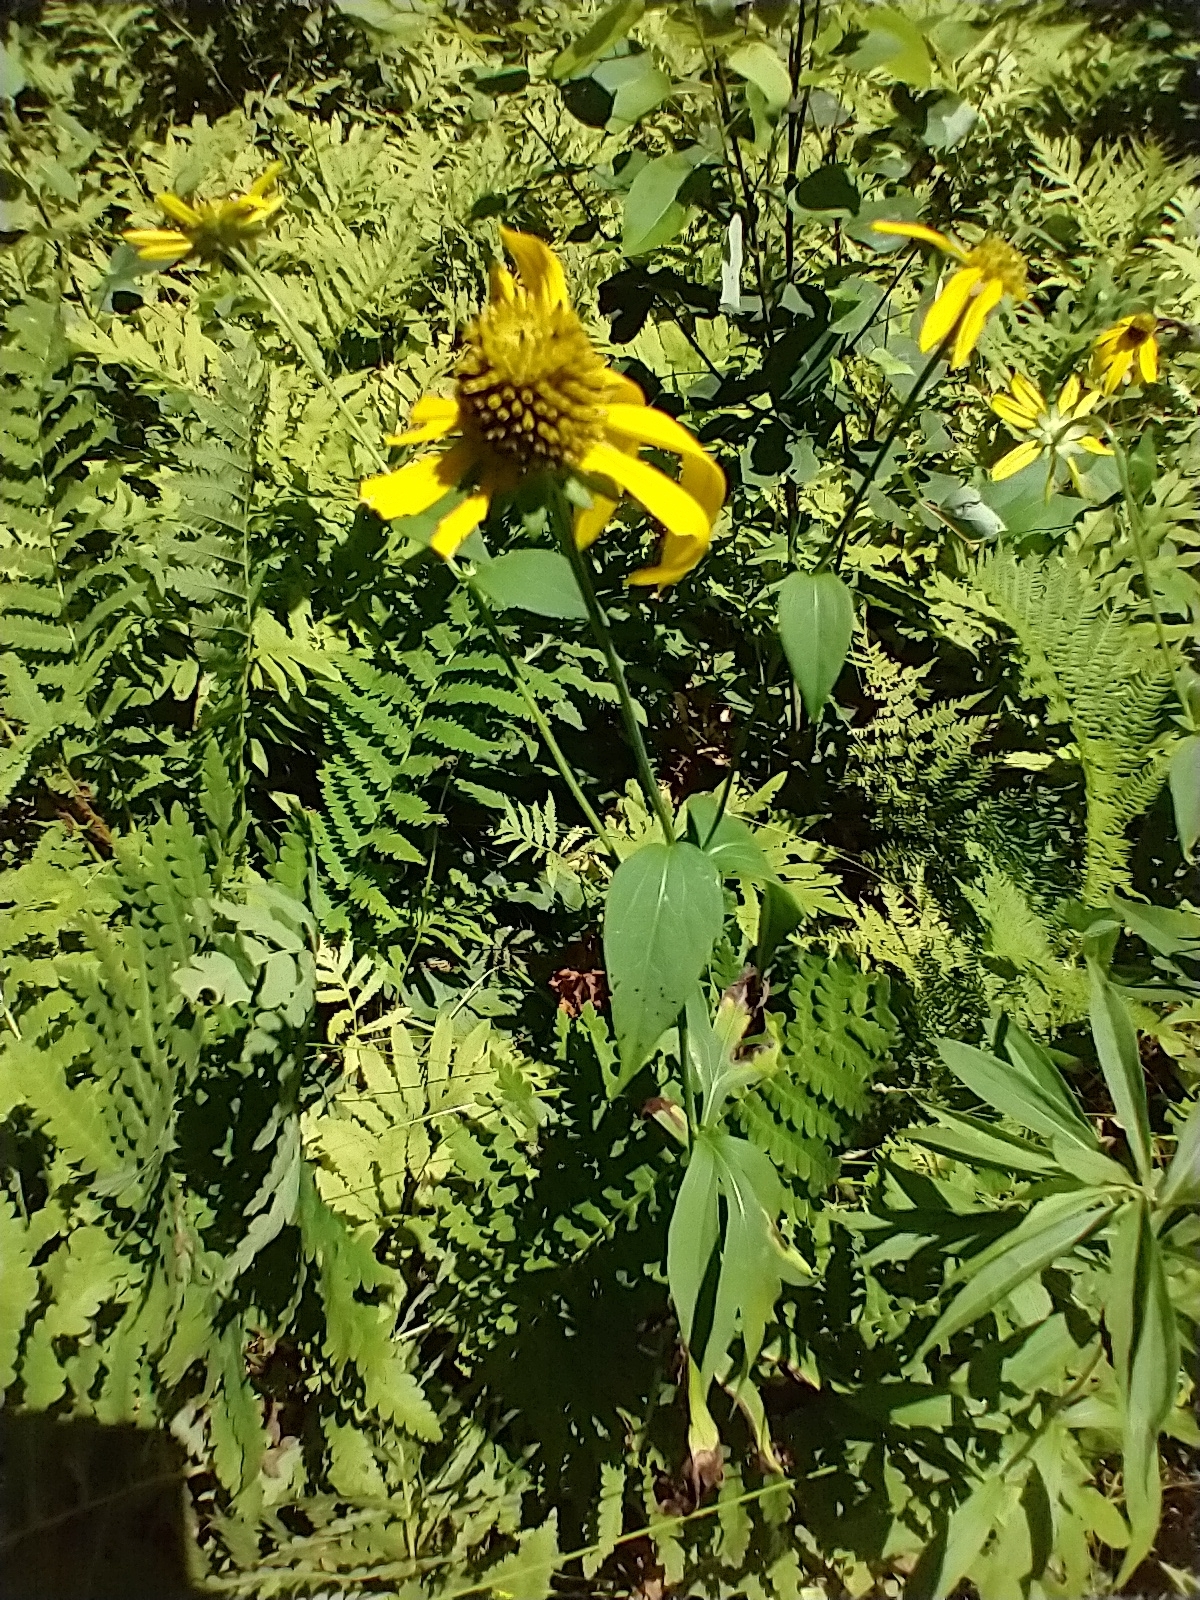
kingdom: Plantae
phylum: Tracheophyta
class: Magnoliopsida
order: Asterales
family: Asteraceae
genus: Rudbeckia
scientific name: Rudbeckia laciniata
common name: Coneflower
